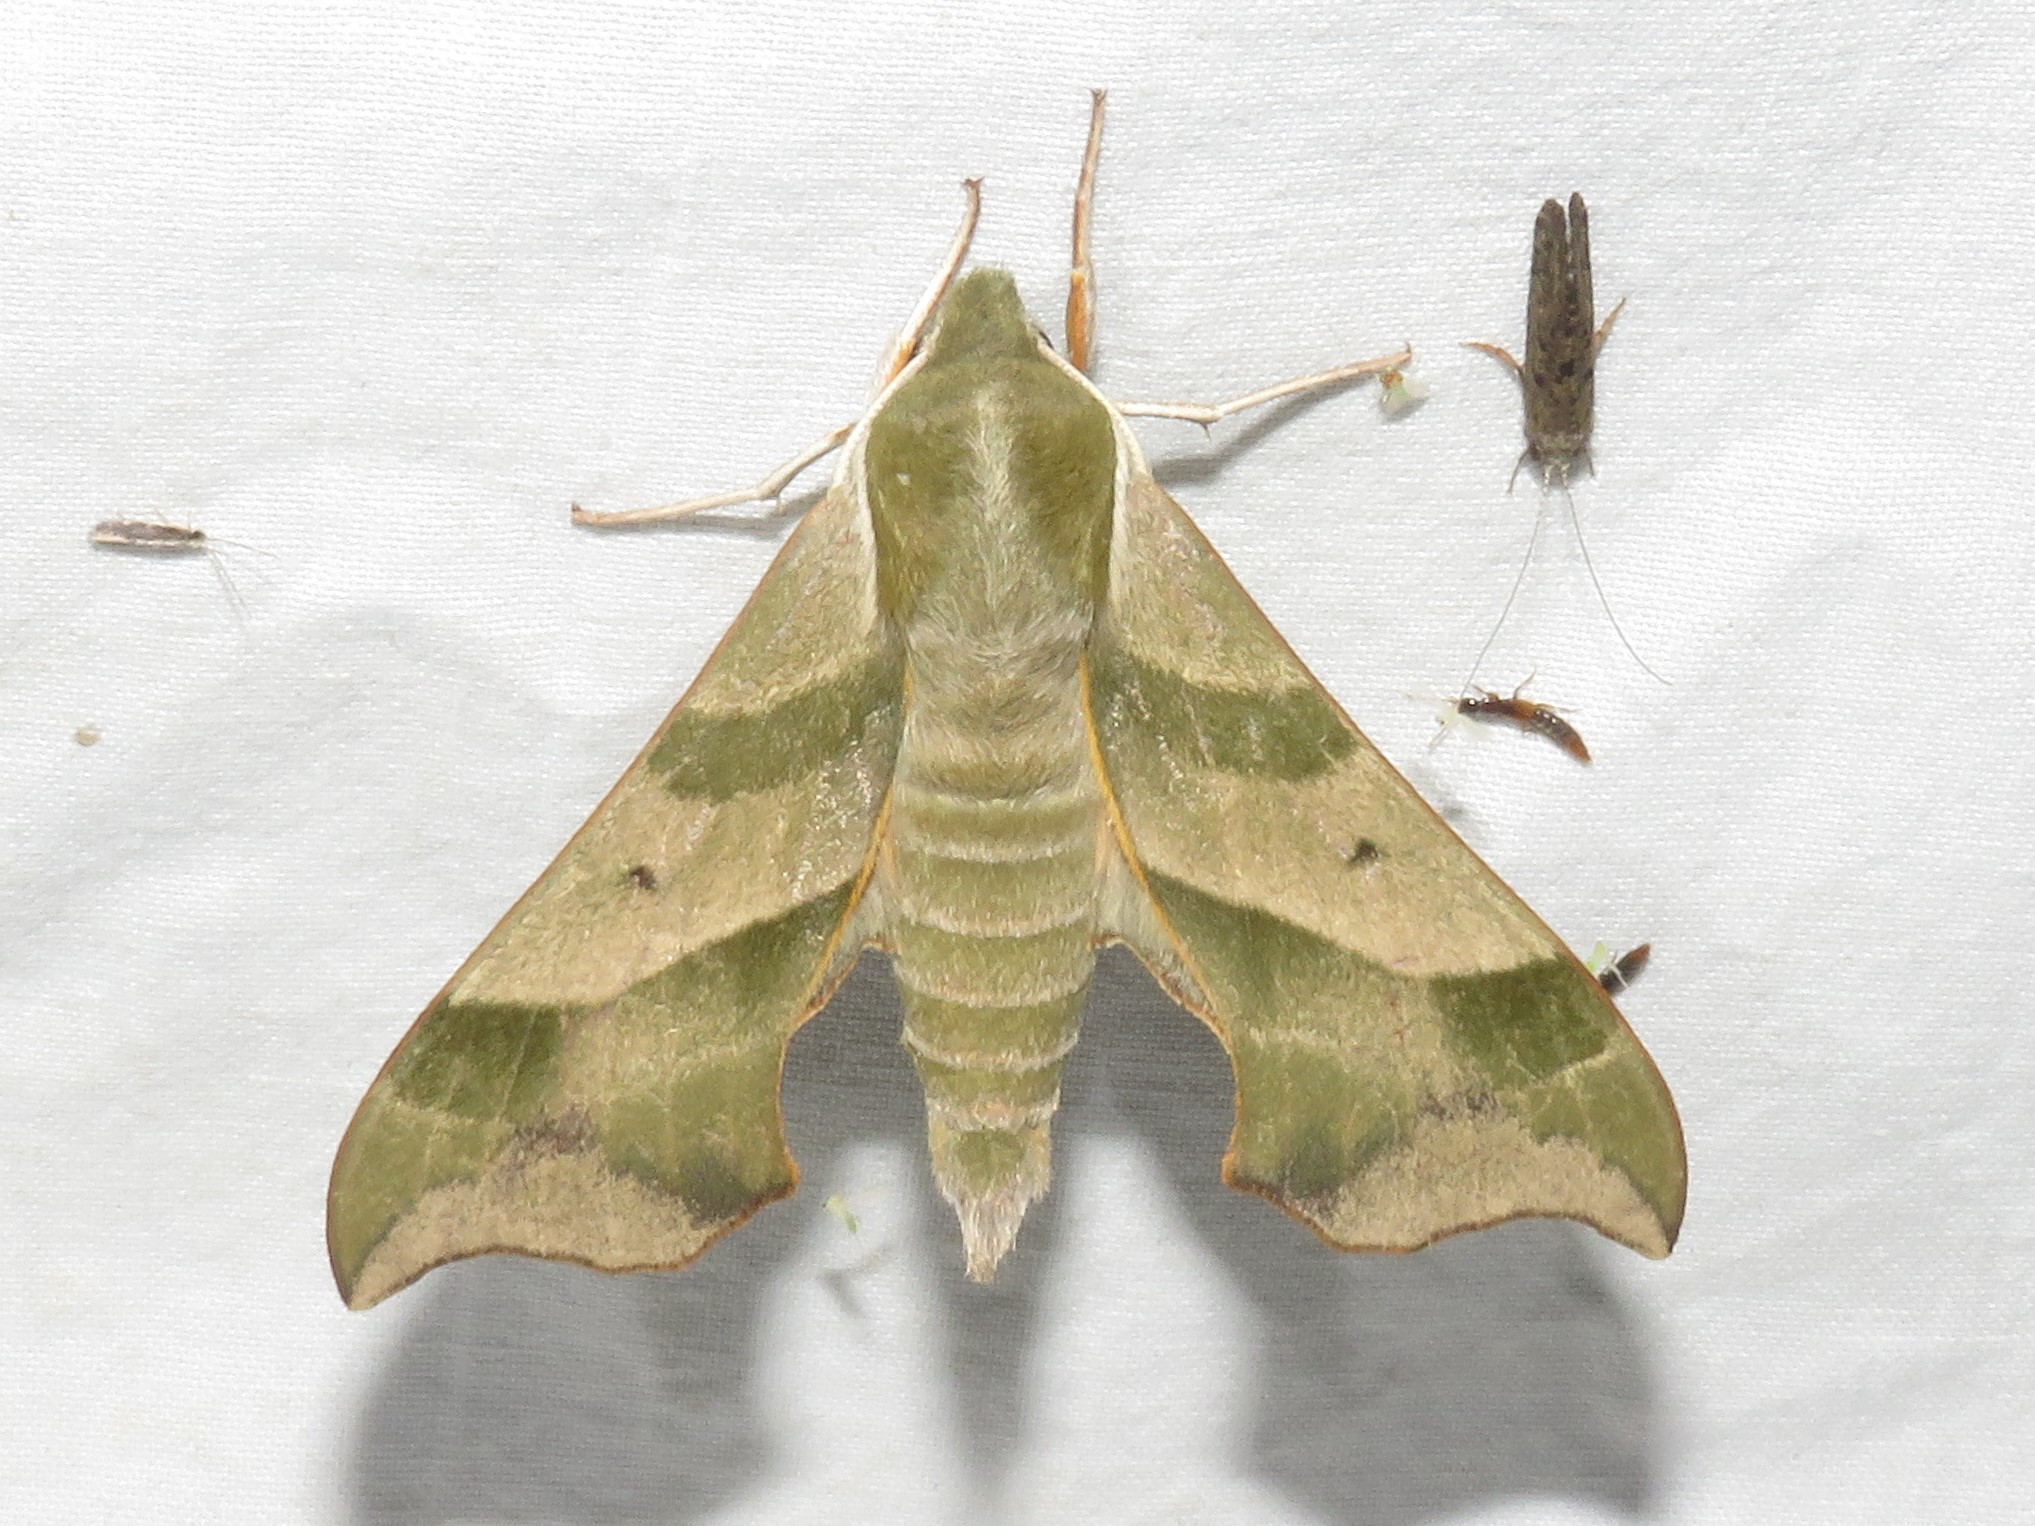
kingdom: Animalia
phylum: Arthropoda
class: Insecta
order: Lepidoptera
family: Sphingidae
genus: Darapsa
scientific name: Darapsa myron
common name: Hog sphinx
